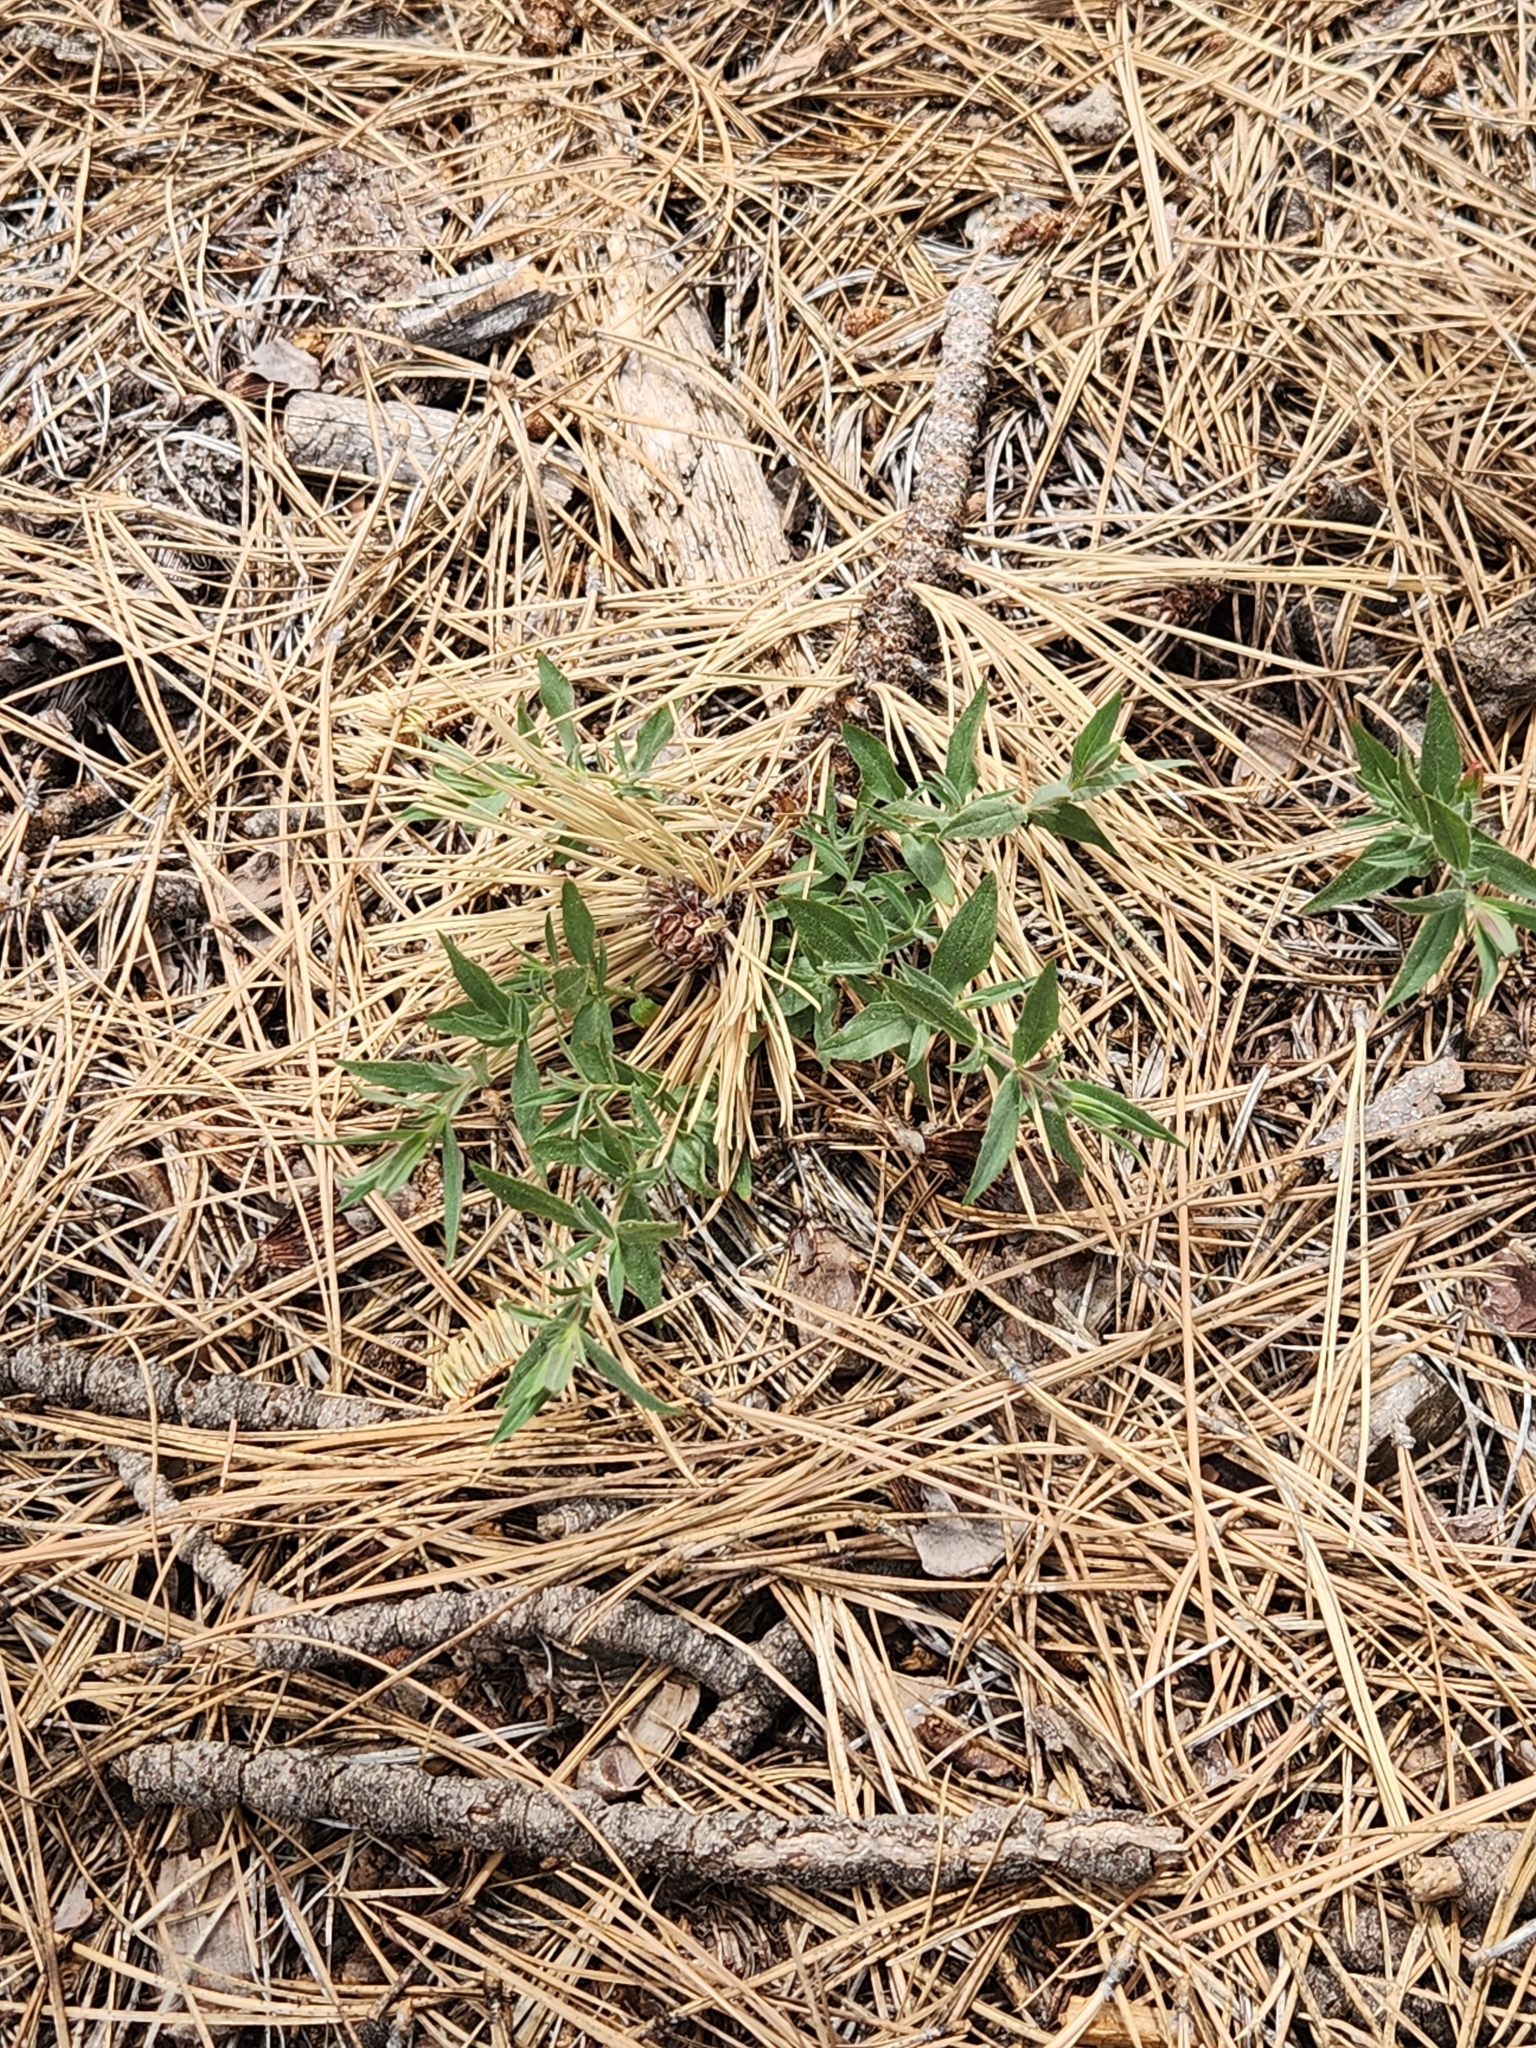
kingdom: Plantae
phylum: Tracheophyta
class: Magnoliopsida
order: Caryophyllales
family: Caryophyllaceae
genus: Silene
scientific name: Silene parishii
